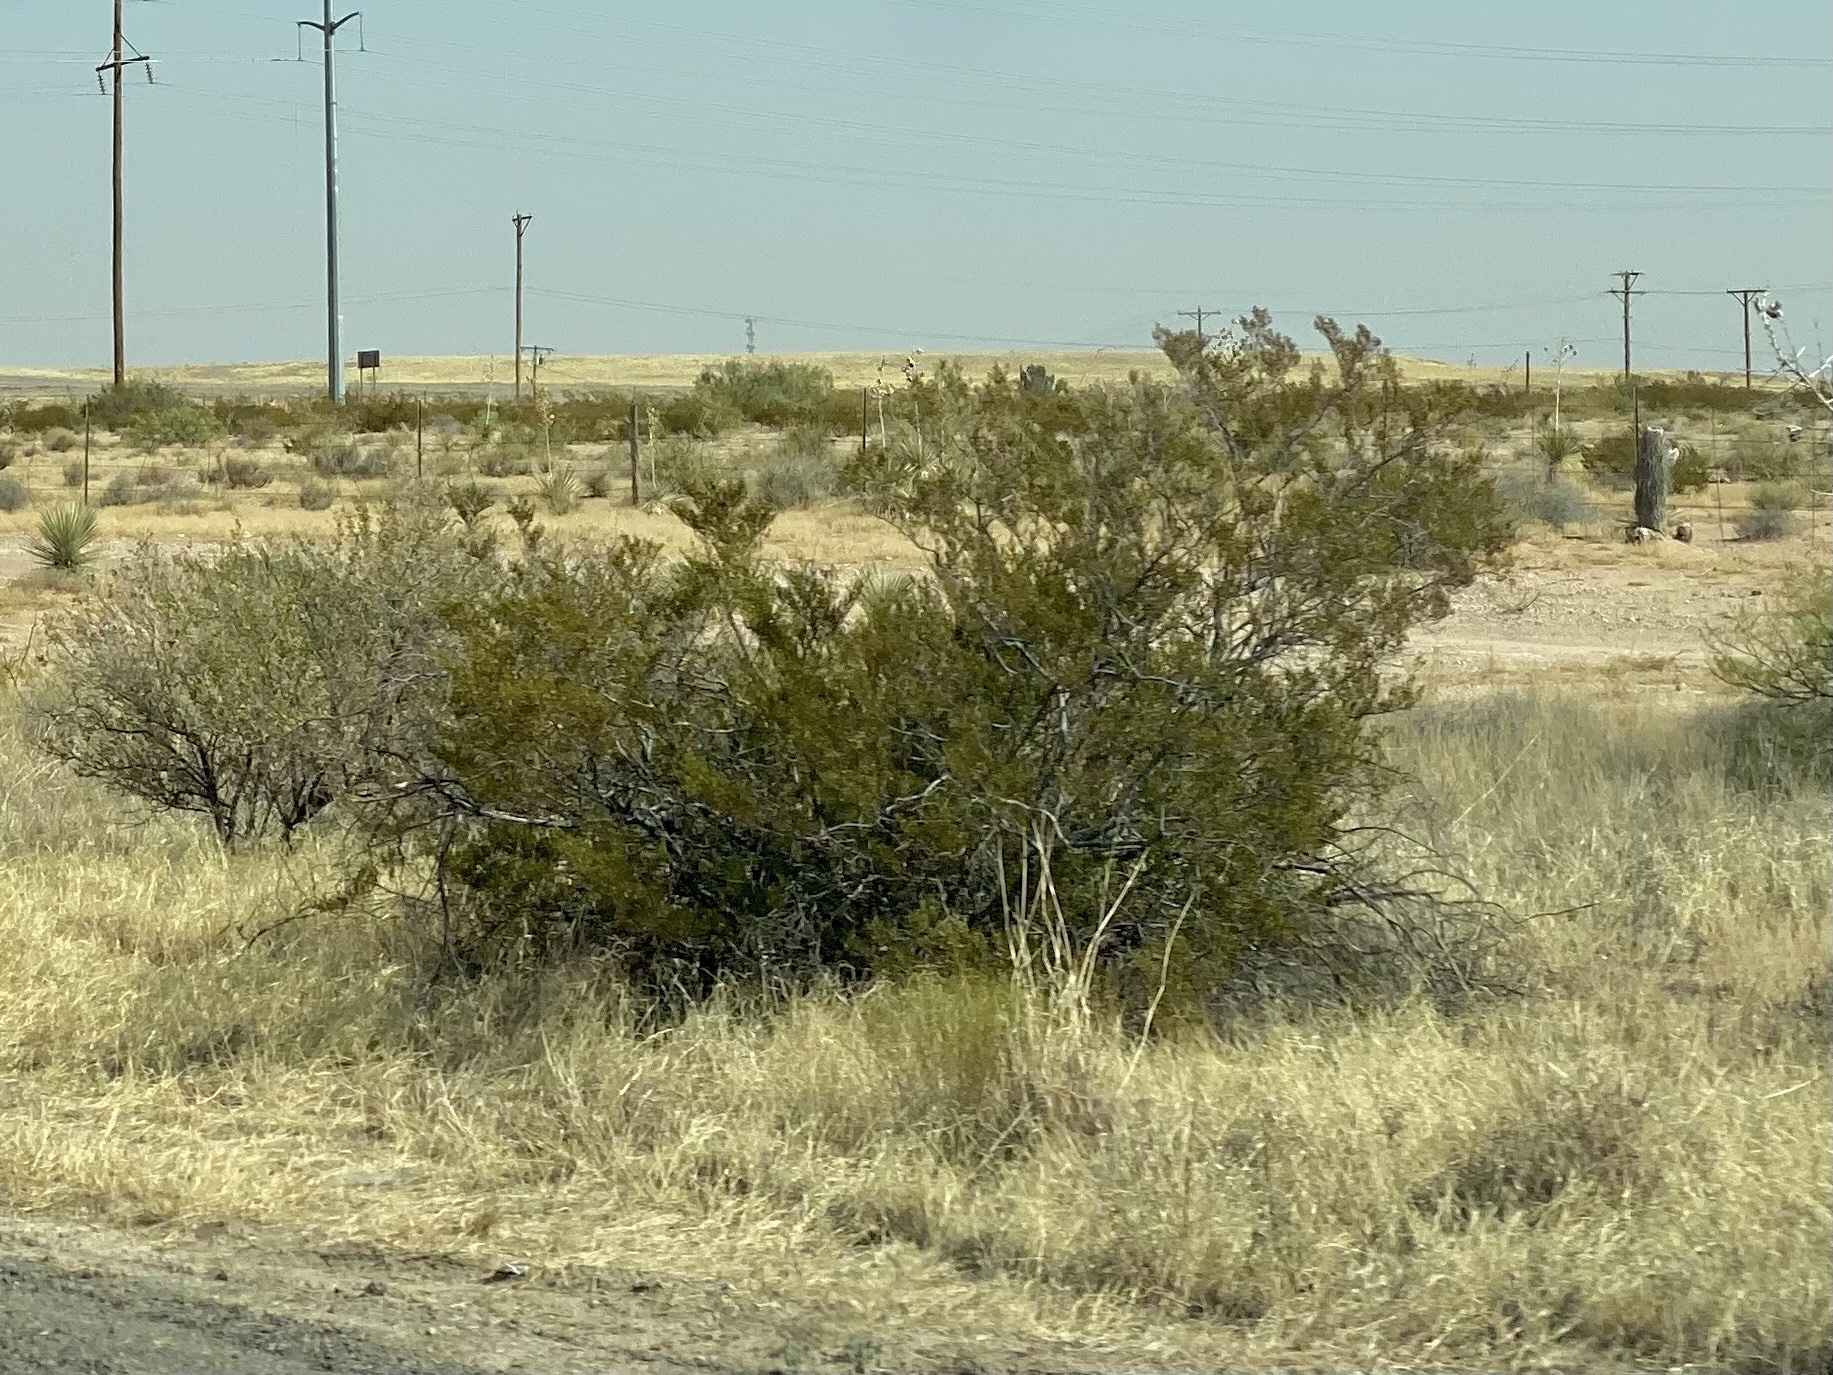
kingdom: Plantae
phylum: Tracheophyta
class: Magnoliopsida
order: Zygophyllales
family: Zygophyllaceae
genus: Larrea
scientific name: Larrea tridentata
